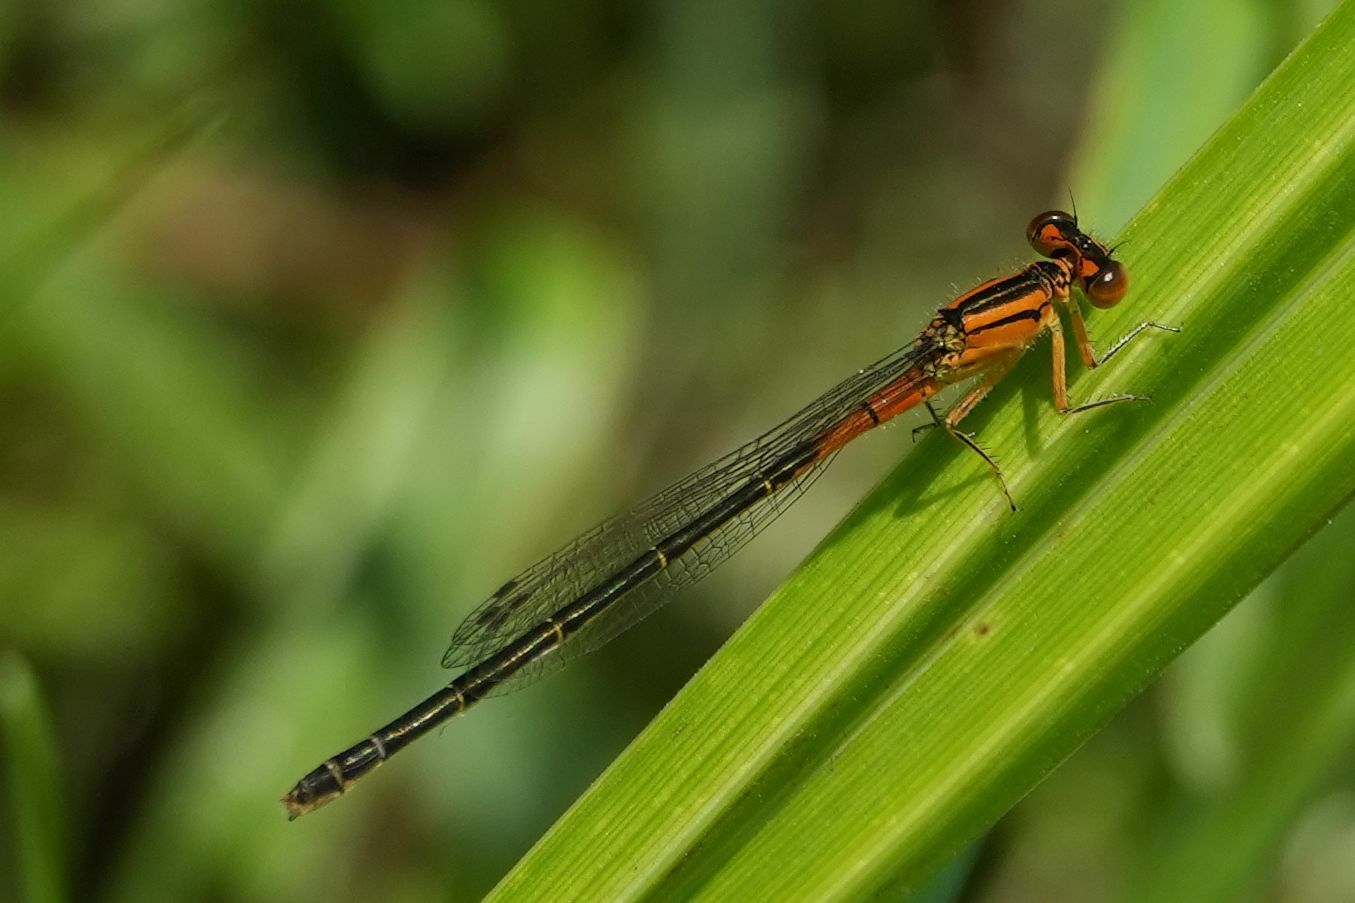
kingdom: Animalia
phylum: Arthropoda
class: Insecta
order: Odonata
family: Coenagrionidae
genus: Ischnura
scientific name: Ischnura verticalis
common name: Eastern forktail
